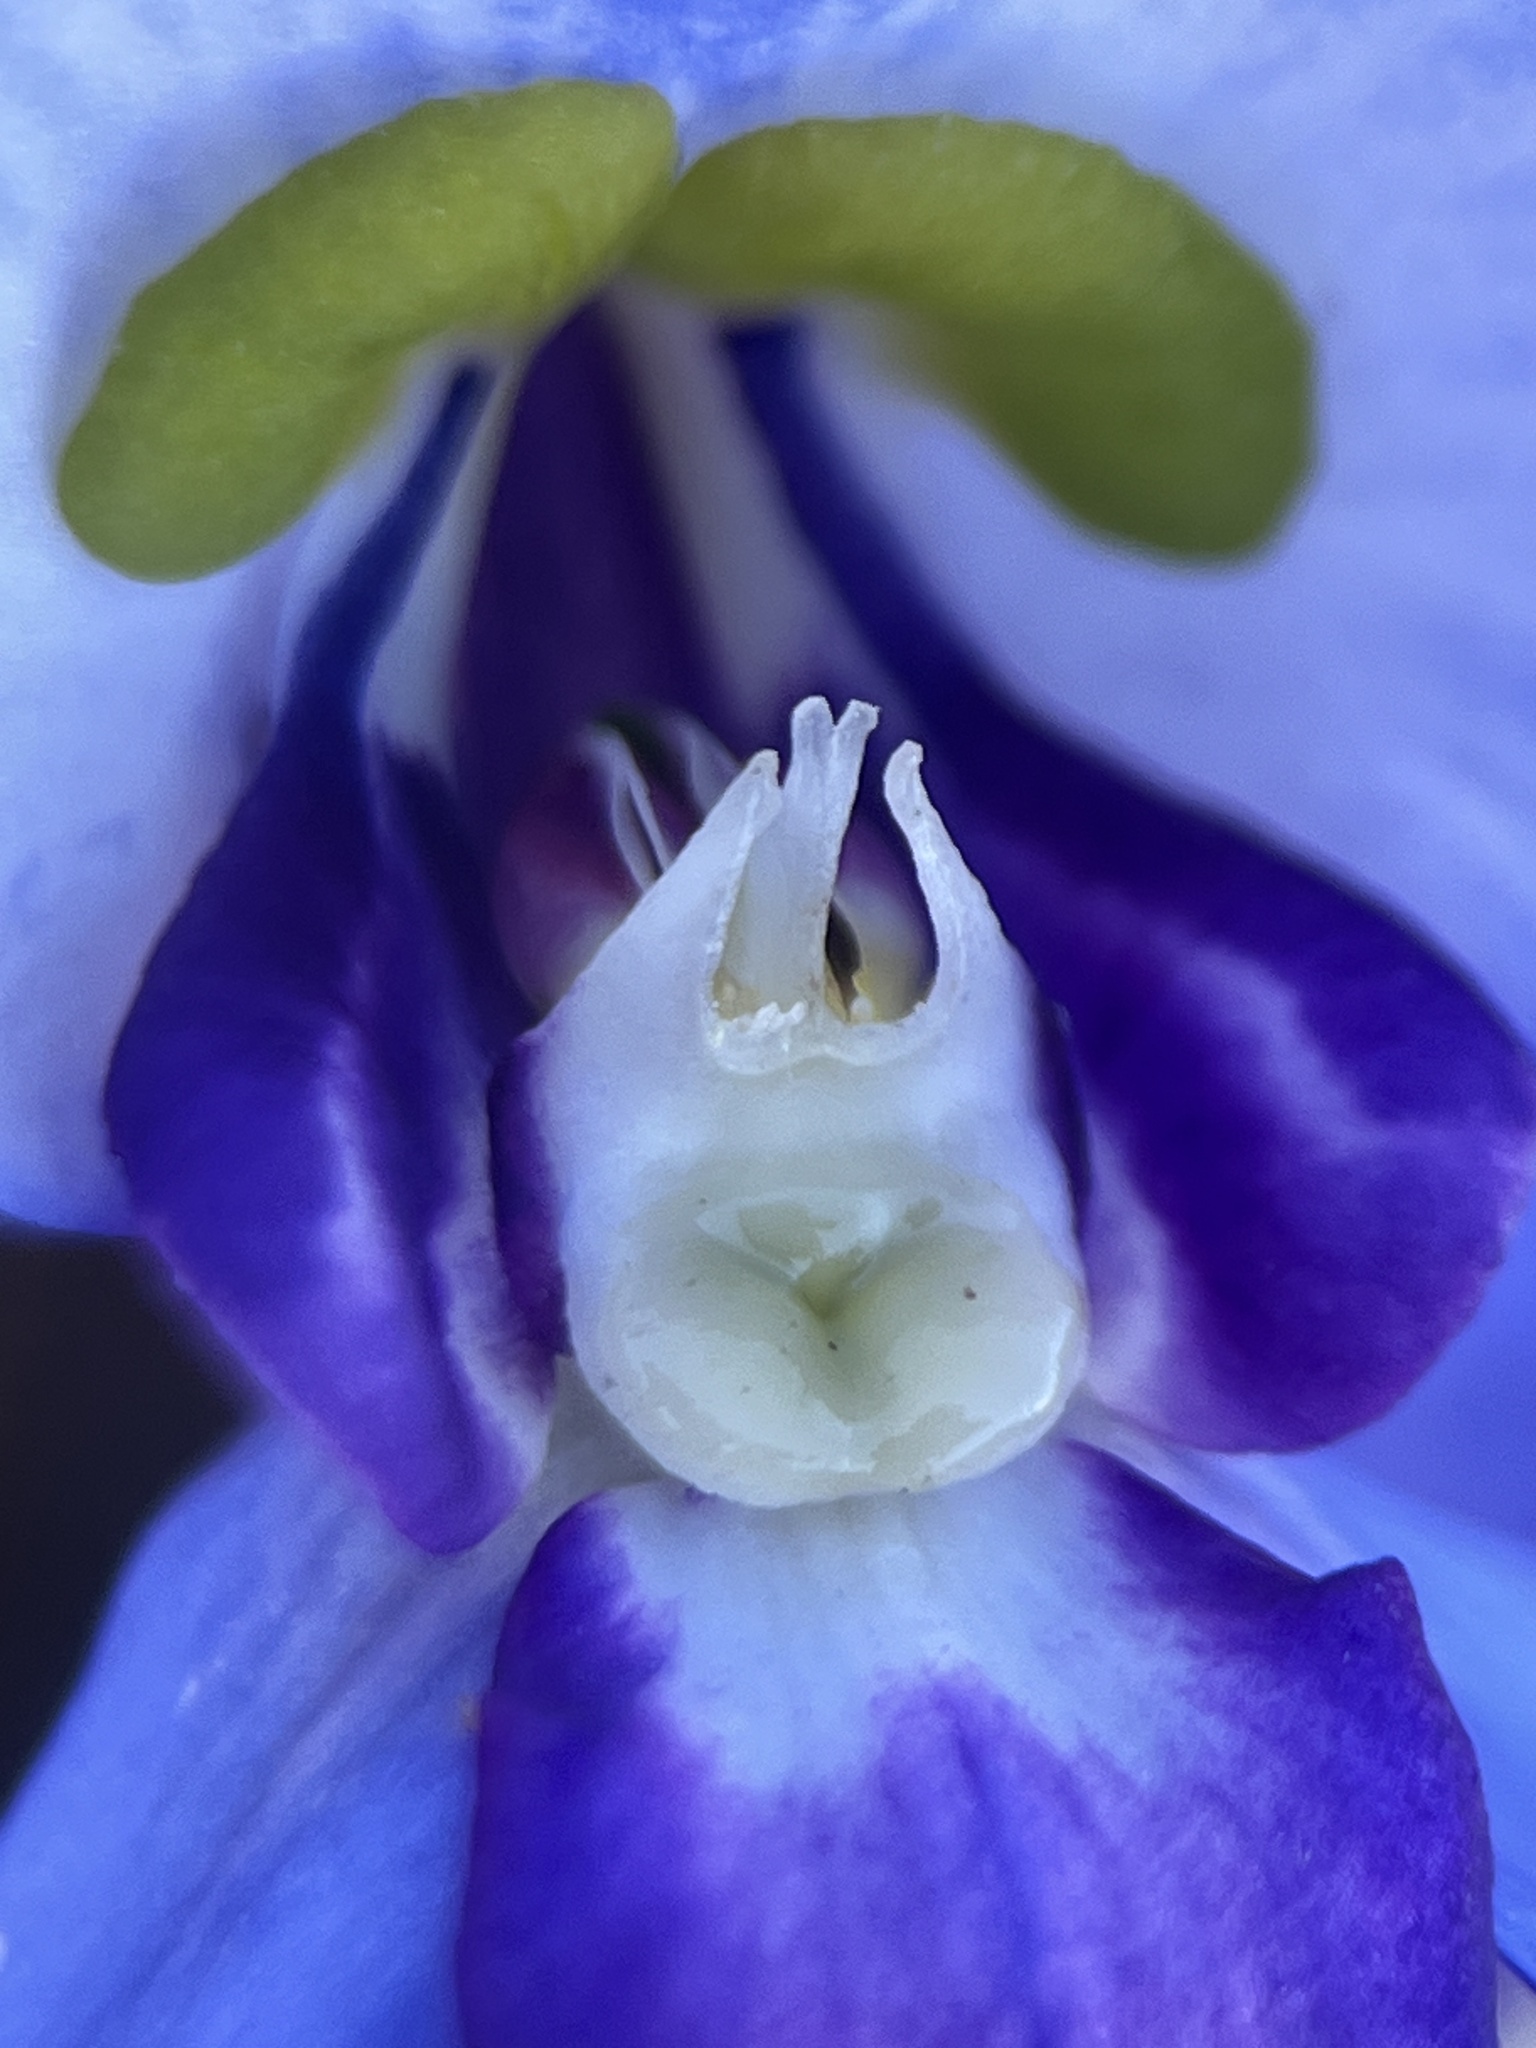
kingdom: Plantae
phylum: Tracheophyta
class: Liliopsida
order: Asparagales
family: Orchidaceae
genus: Disa
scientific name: Disa graminifolia
